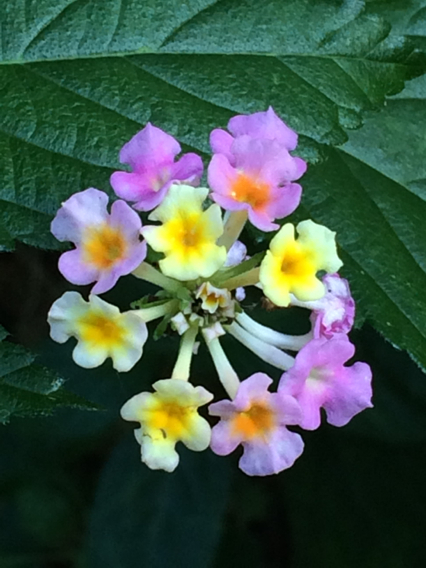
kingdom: Plantae
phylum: Tracheophyta
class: Magnoliopsida
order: Lamiales
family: Verbenaceae
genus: Lantana
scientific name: Lantana strigocamara
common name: Lantana
